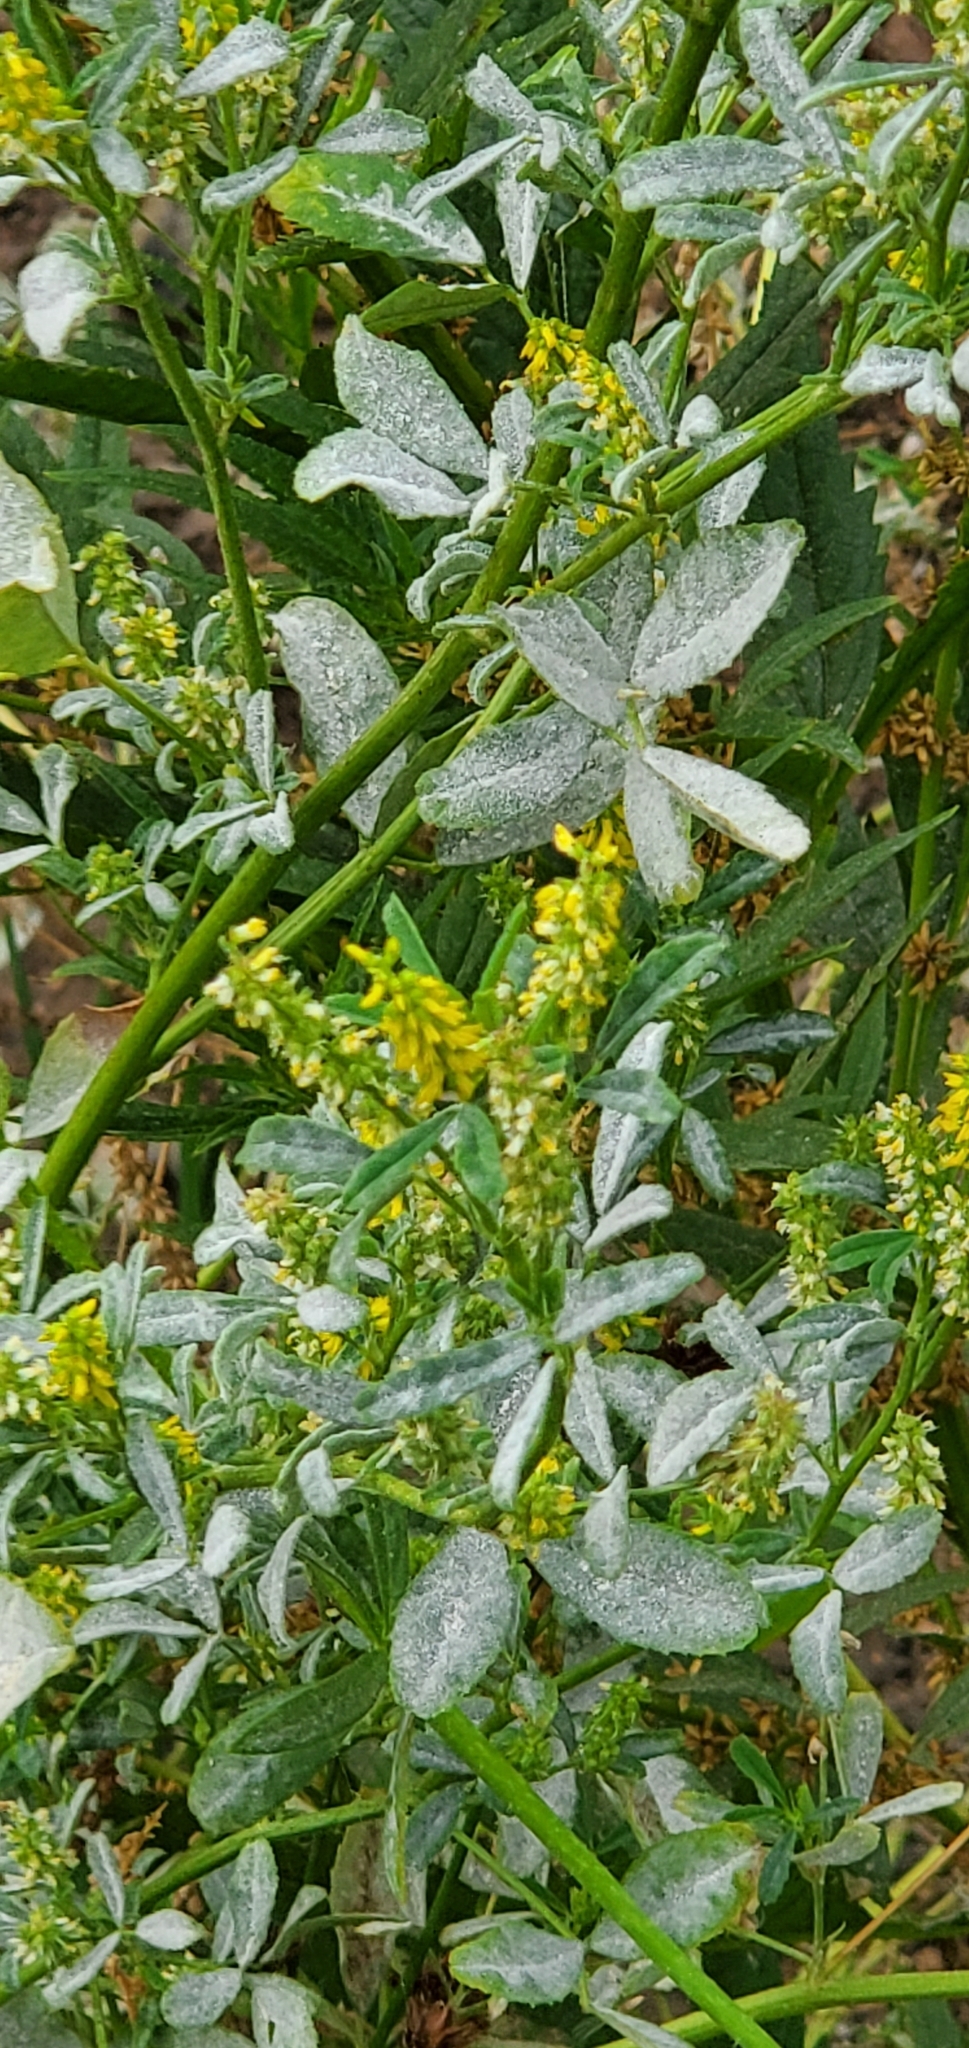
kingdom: Plantae
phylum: Tracheophyta
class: Magnoliopsida
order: Fabales
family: Fabaceae
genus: Melilotus
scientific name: Melilotus indicus
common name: Small melilot
